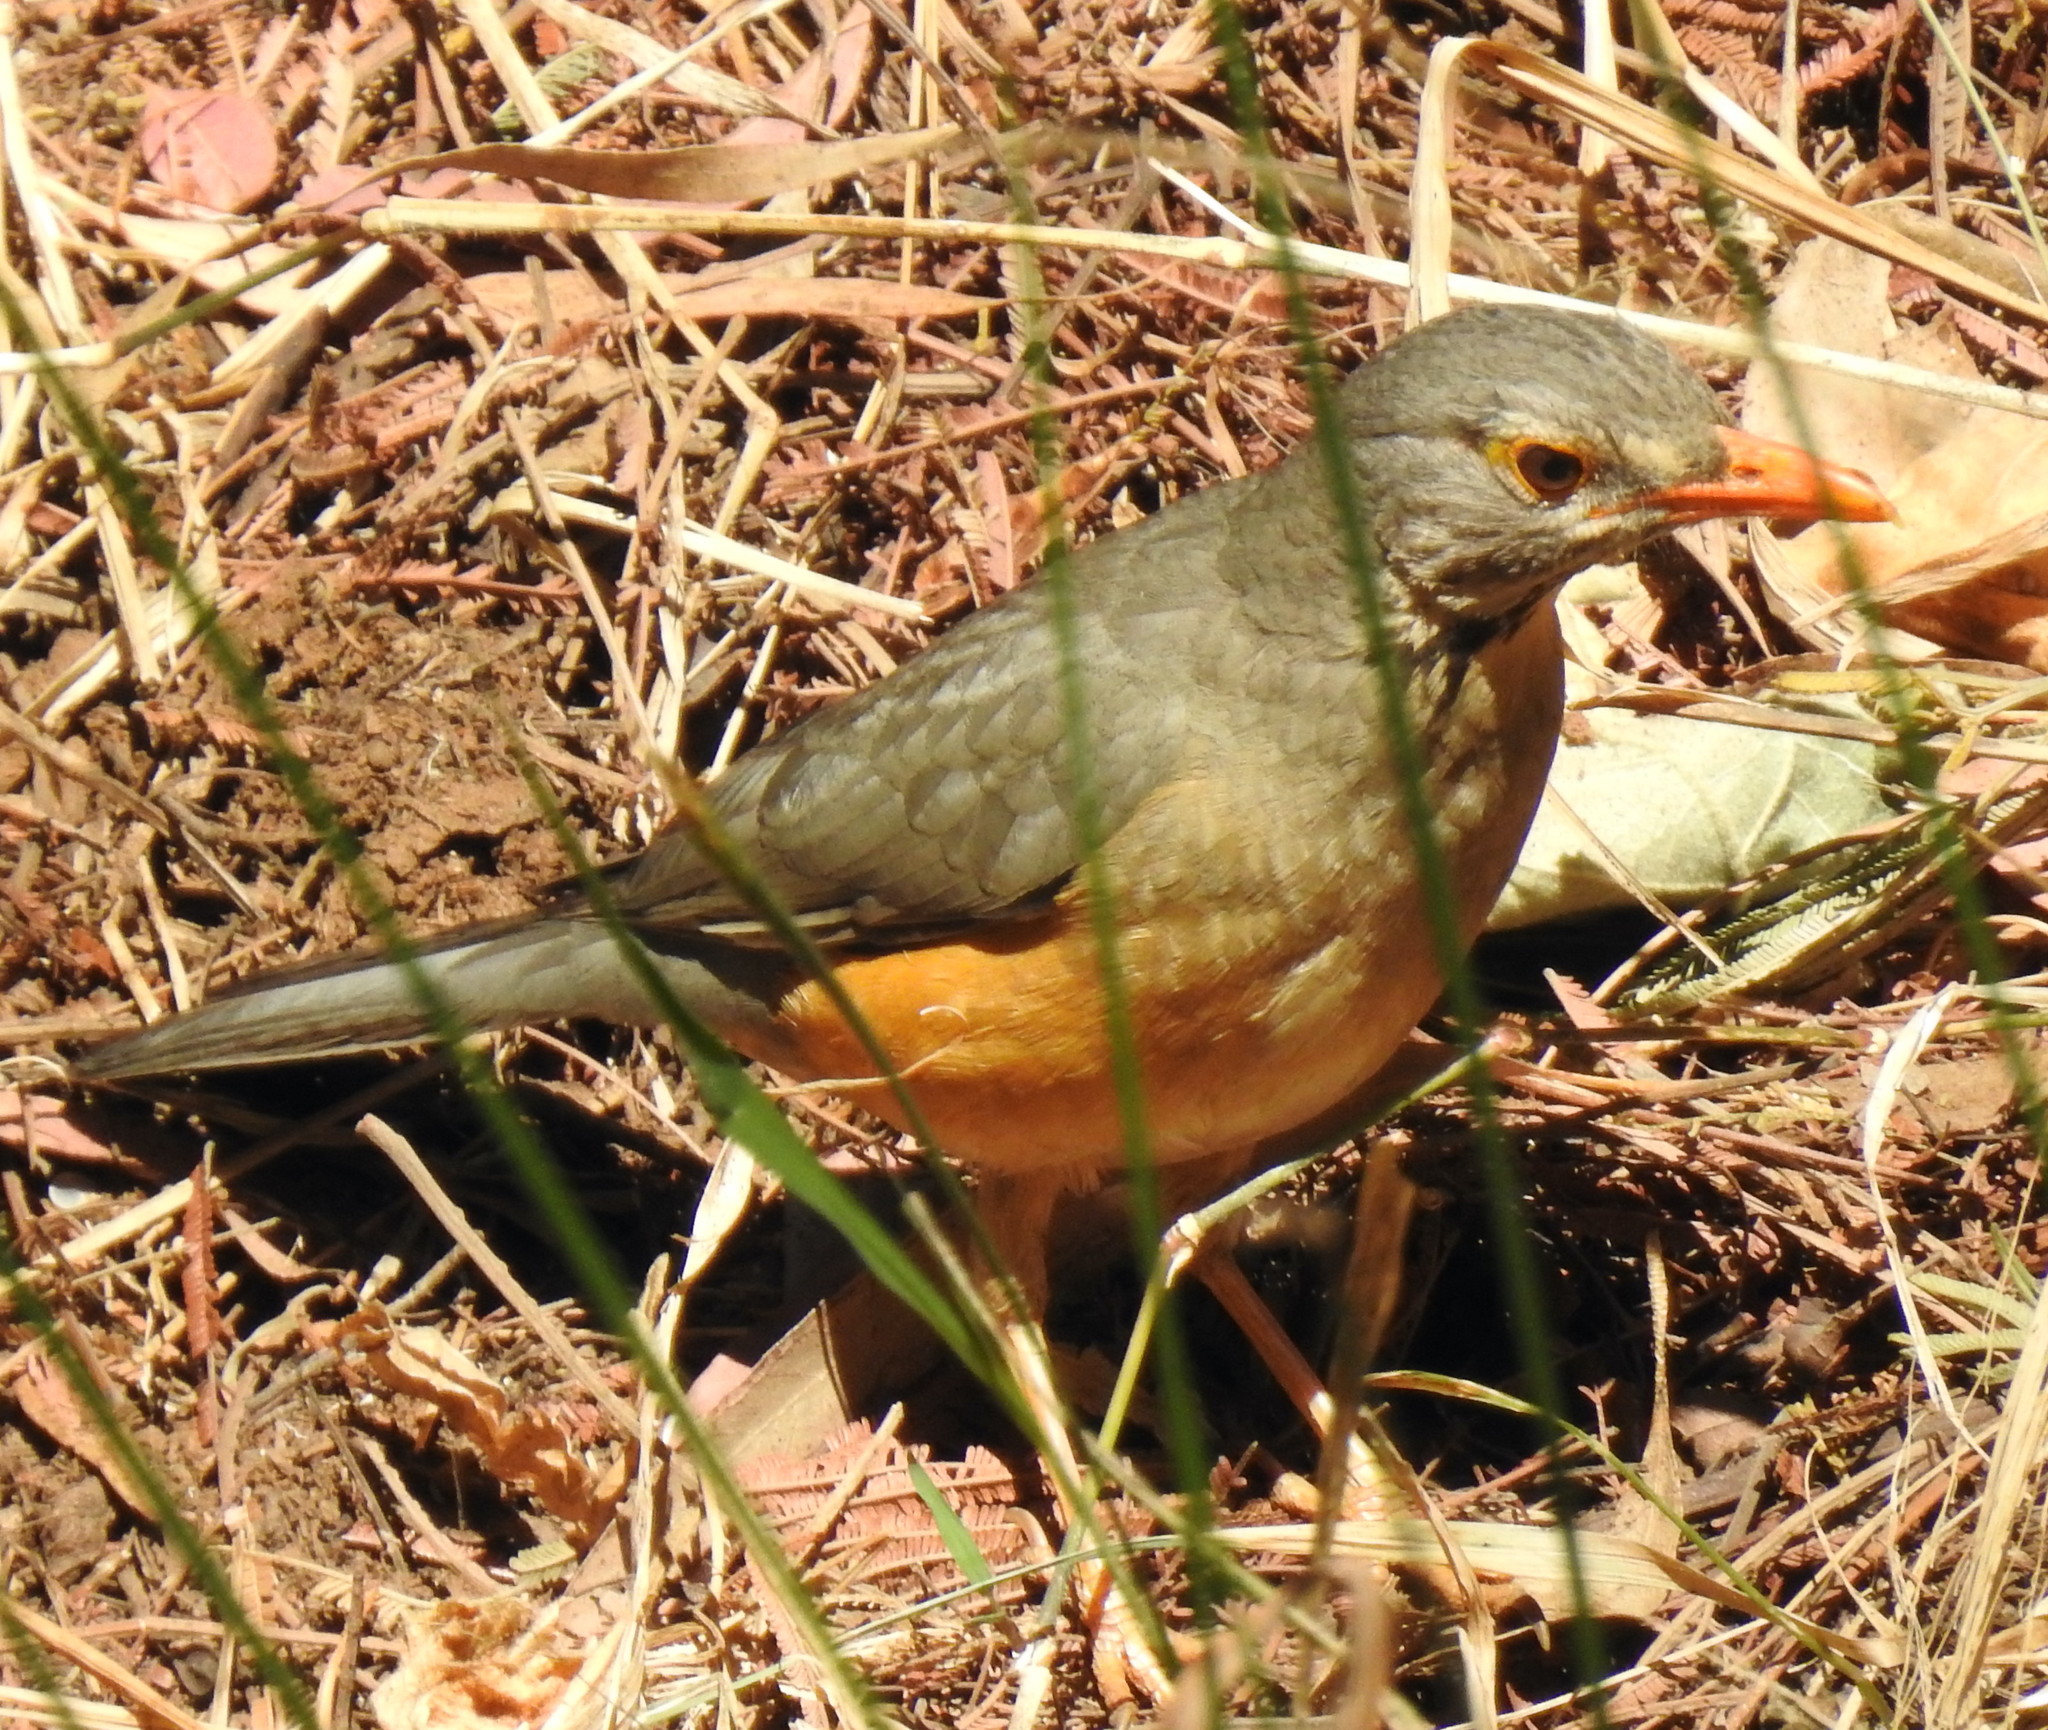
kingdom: Animalia
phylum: Chordata
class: Aves
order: Passeriformes
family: Turdidae
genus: Turdus
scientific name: Turdus libonyana
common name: Kurrichane thrush
